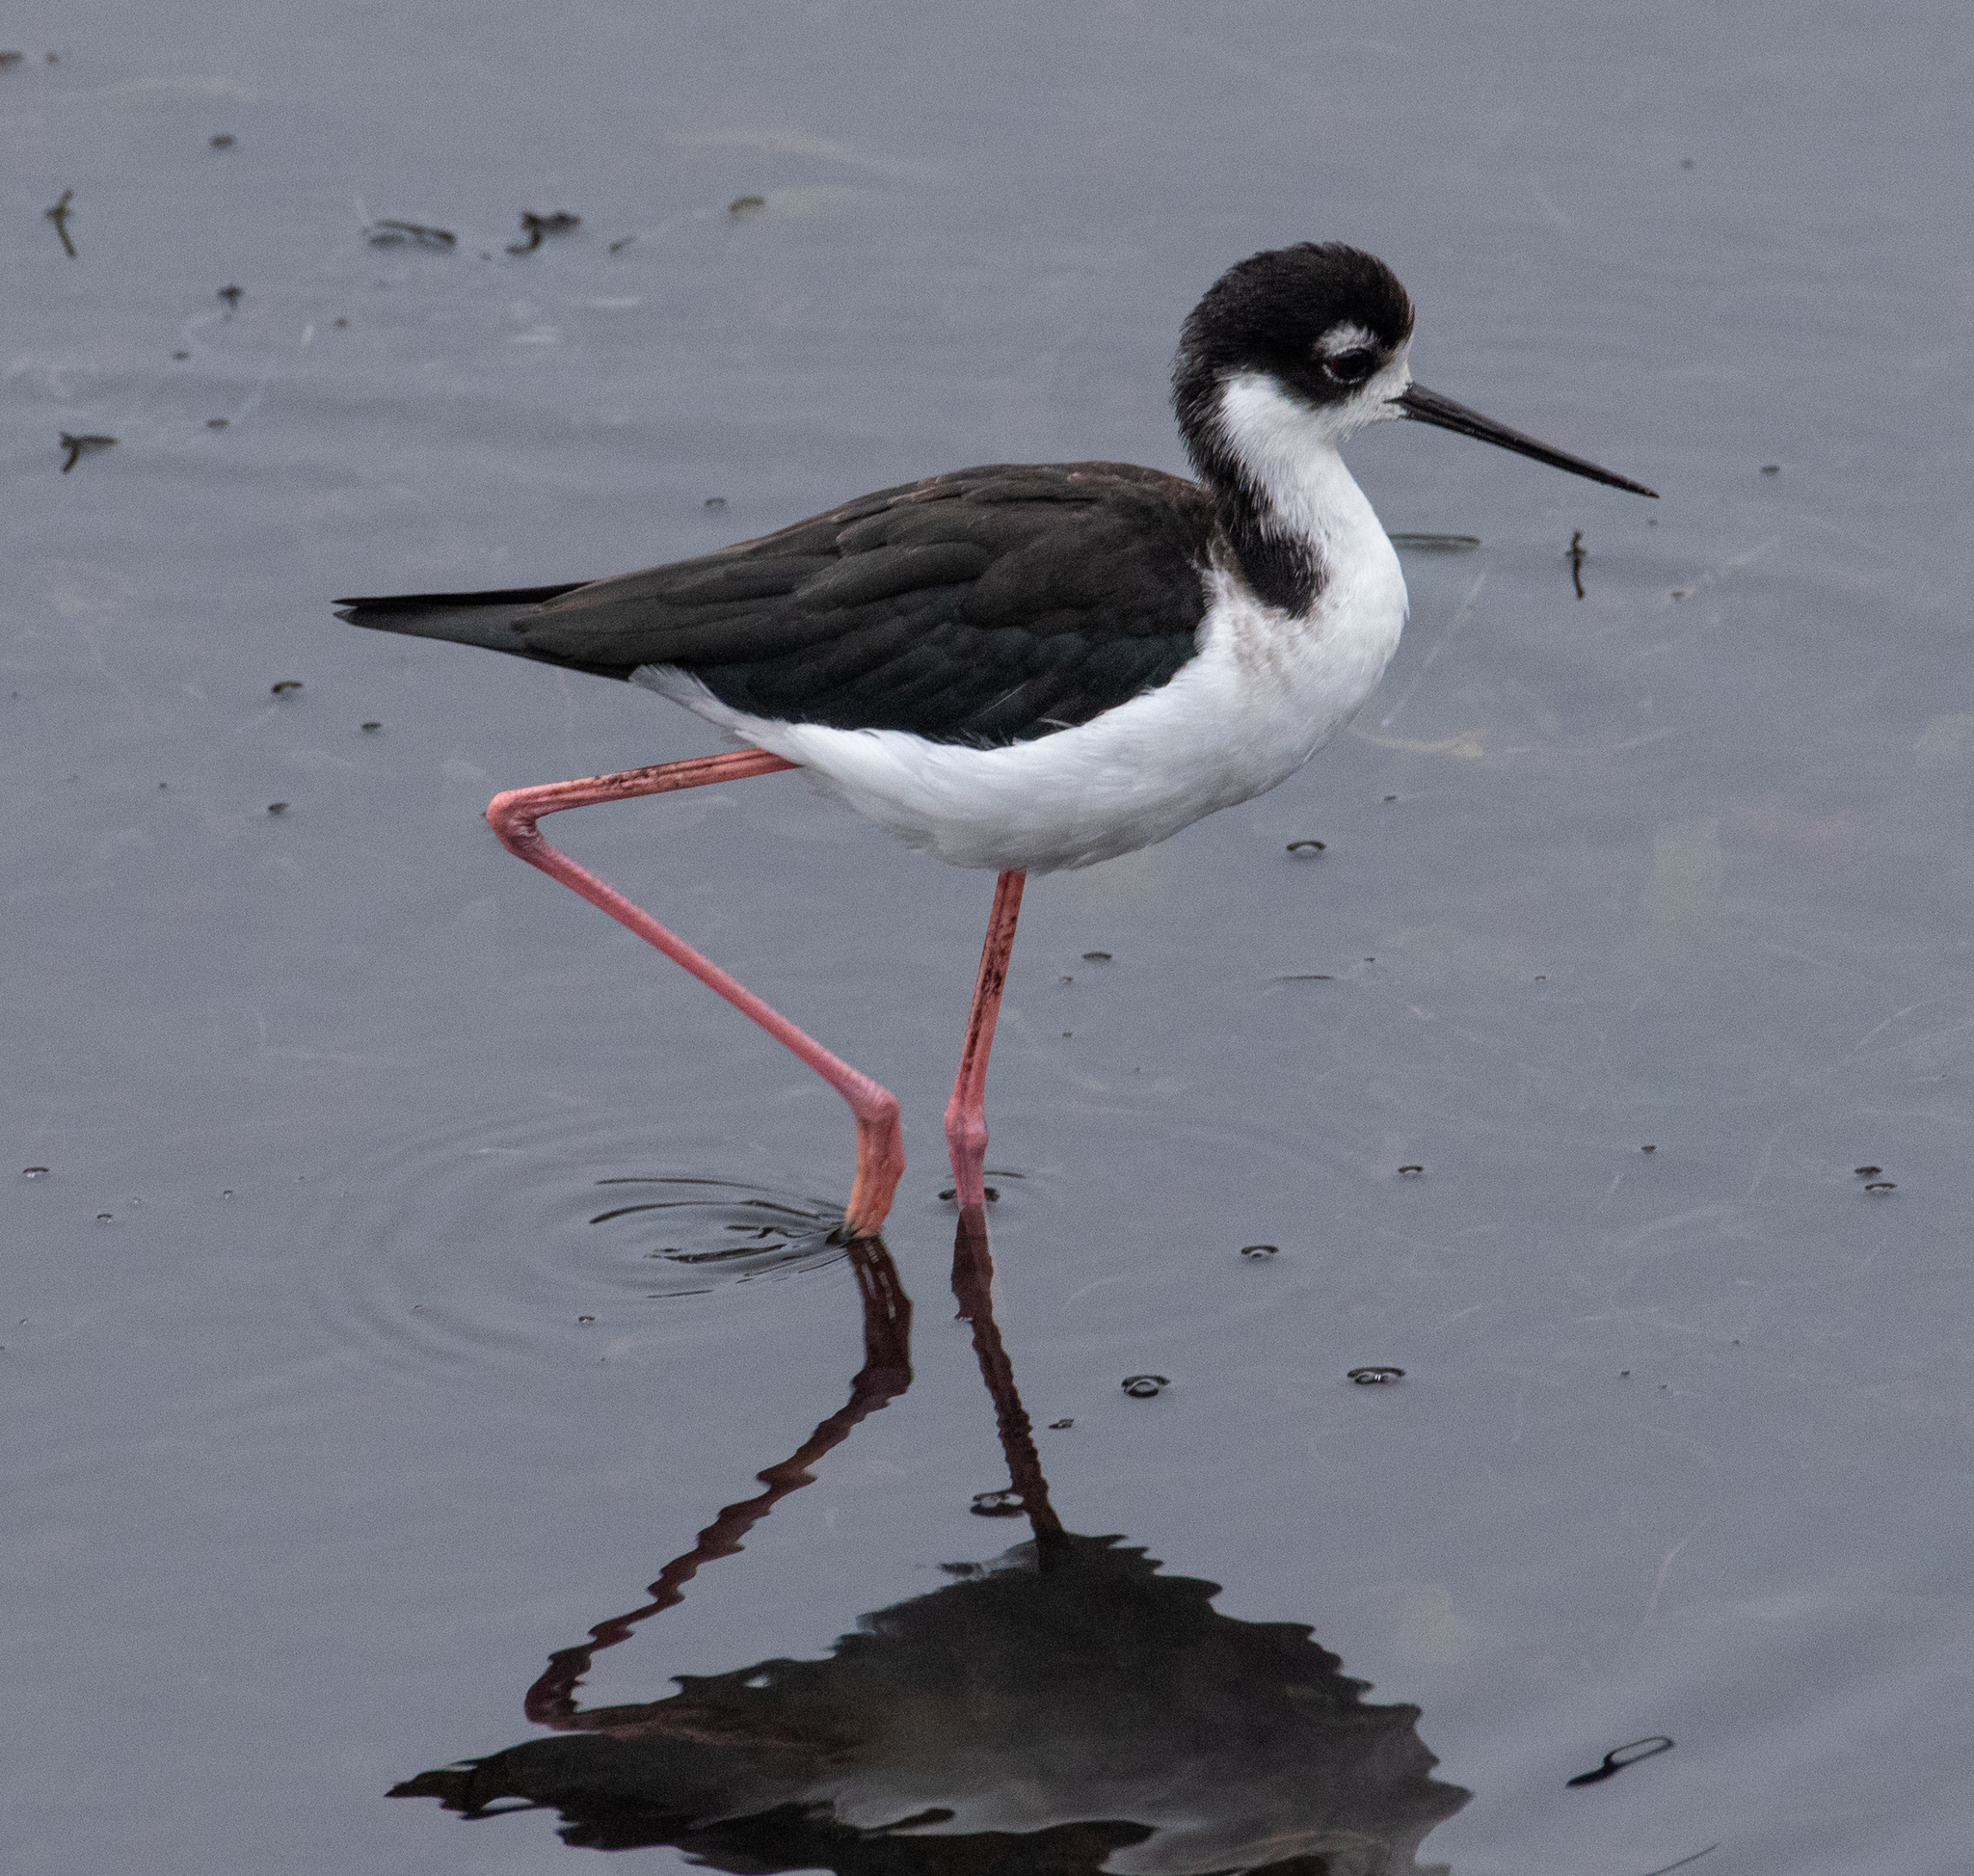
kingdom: Animalia
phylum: Chordata
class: Aves
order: Charadriiformes
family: Recurvirostridae
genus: Himantopus
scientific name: Himantopus mexicanus
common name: Black-necked stilt
